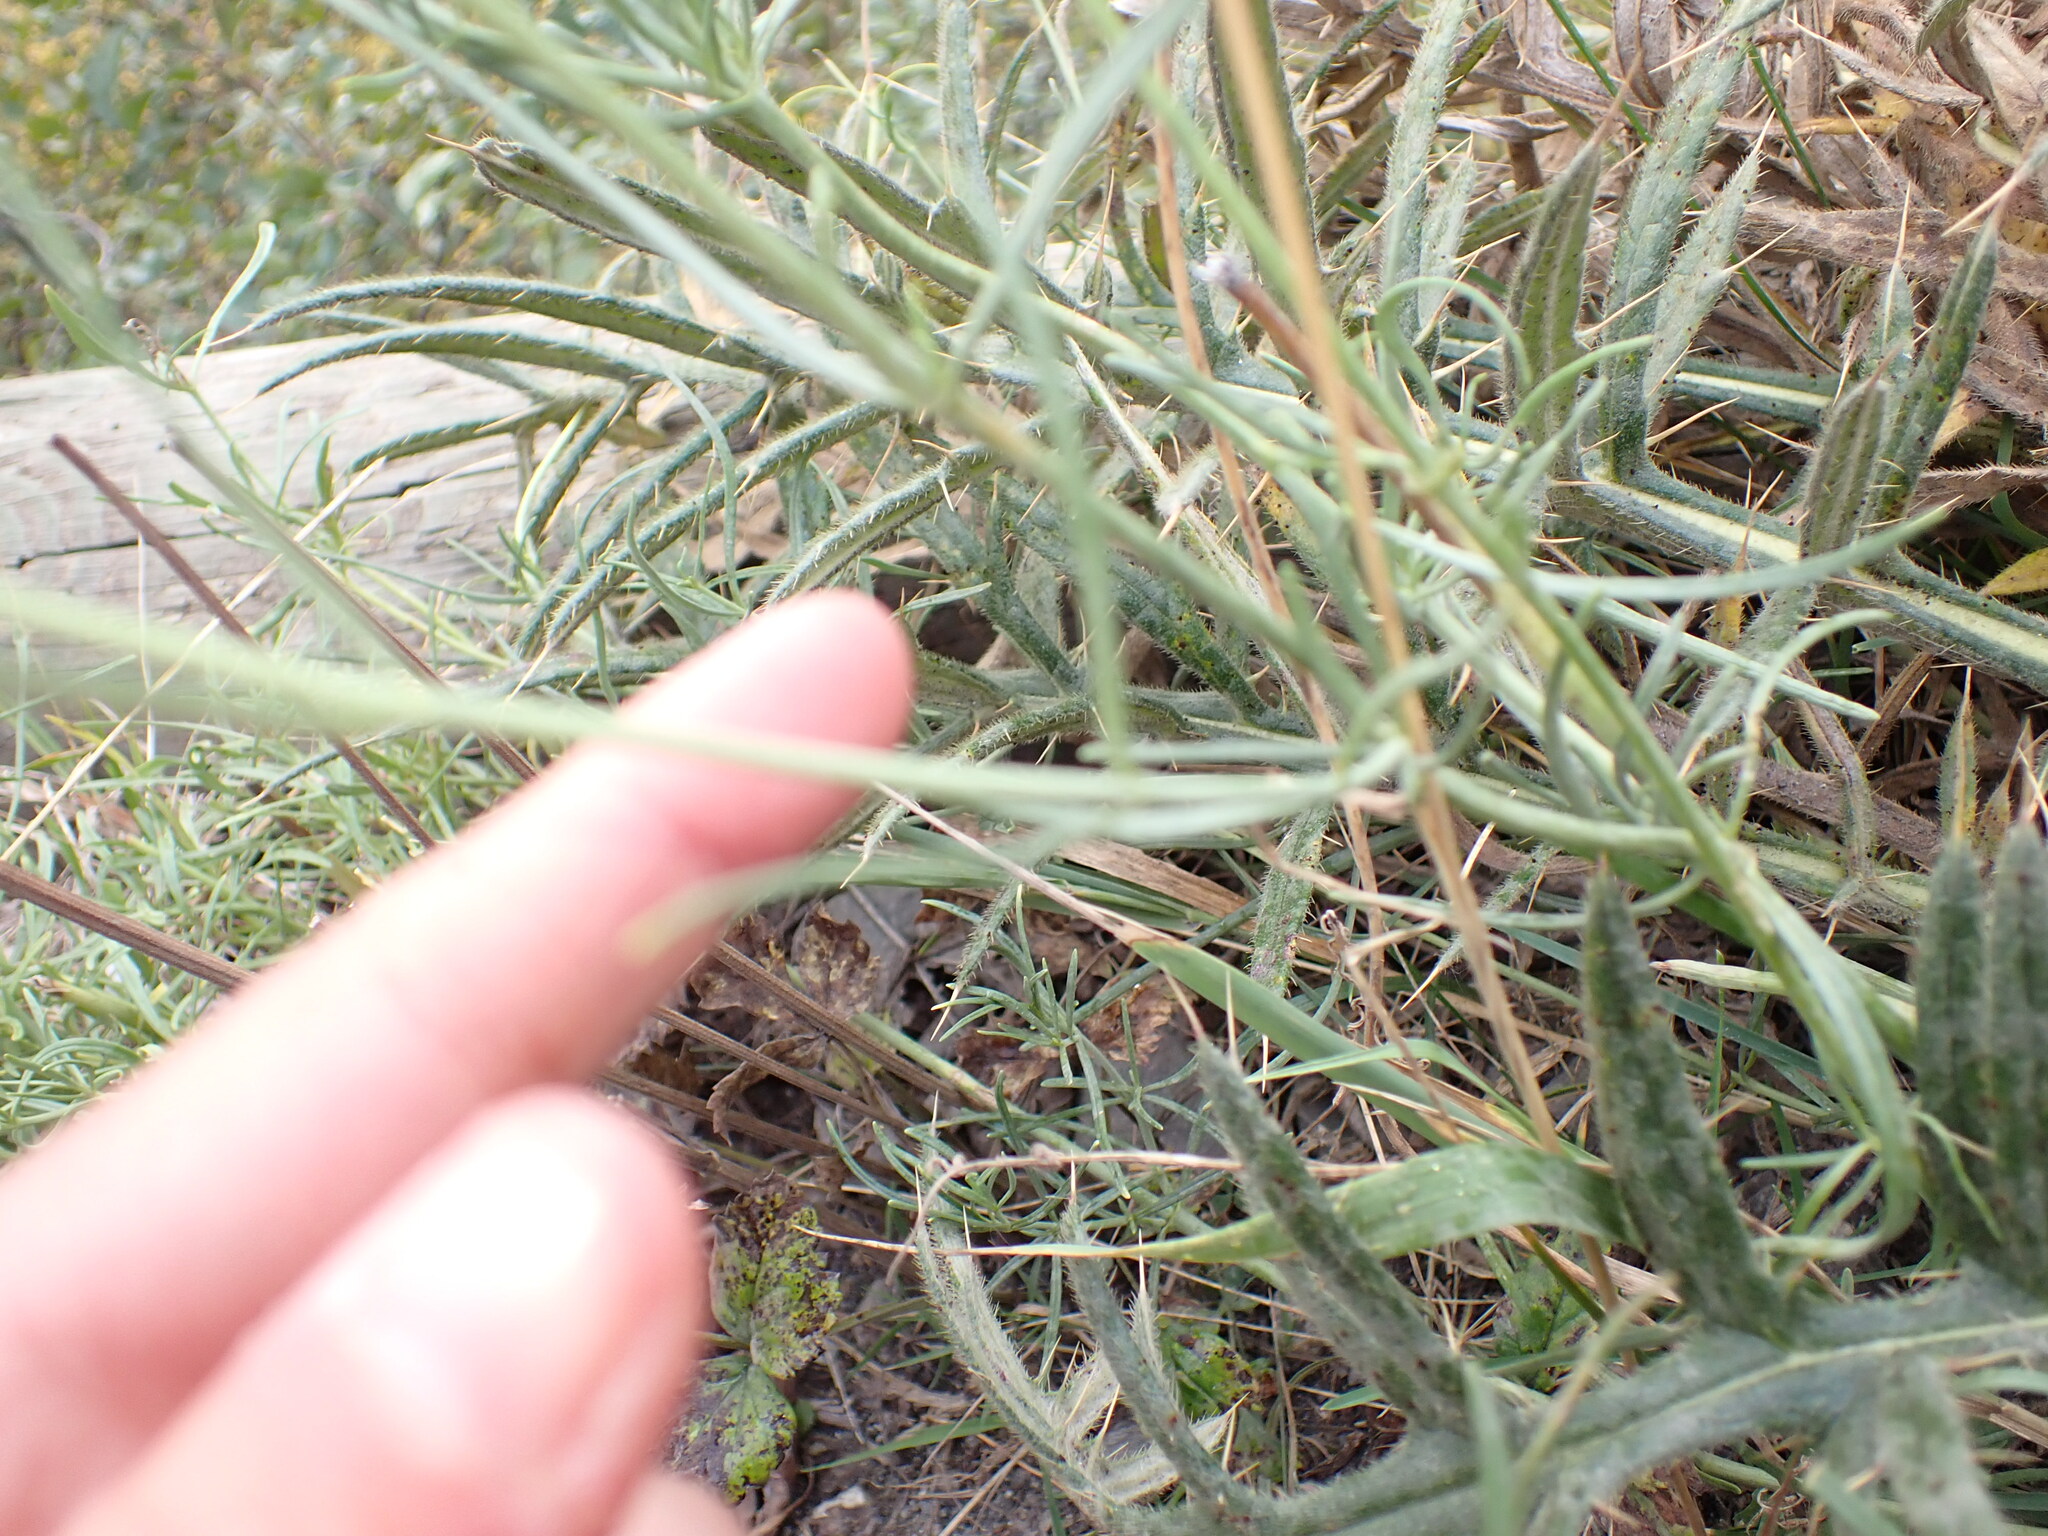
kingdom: Plantae
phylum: Tracheophyta
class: Magnoliopsida
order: Dipsacales
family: Caprifoliaceae
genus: Centranthus
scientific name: Centranthus angustifolius
